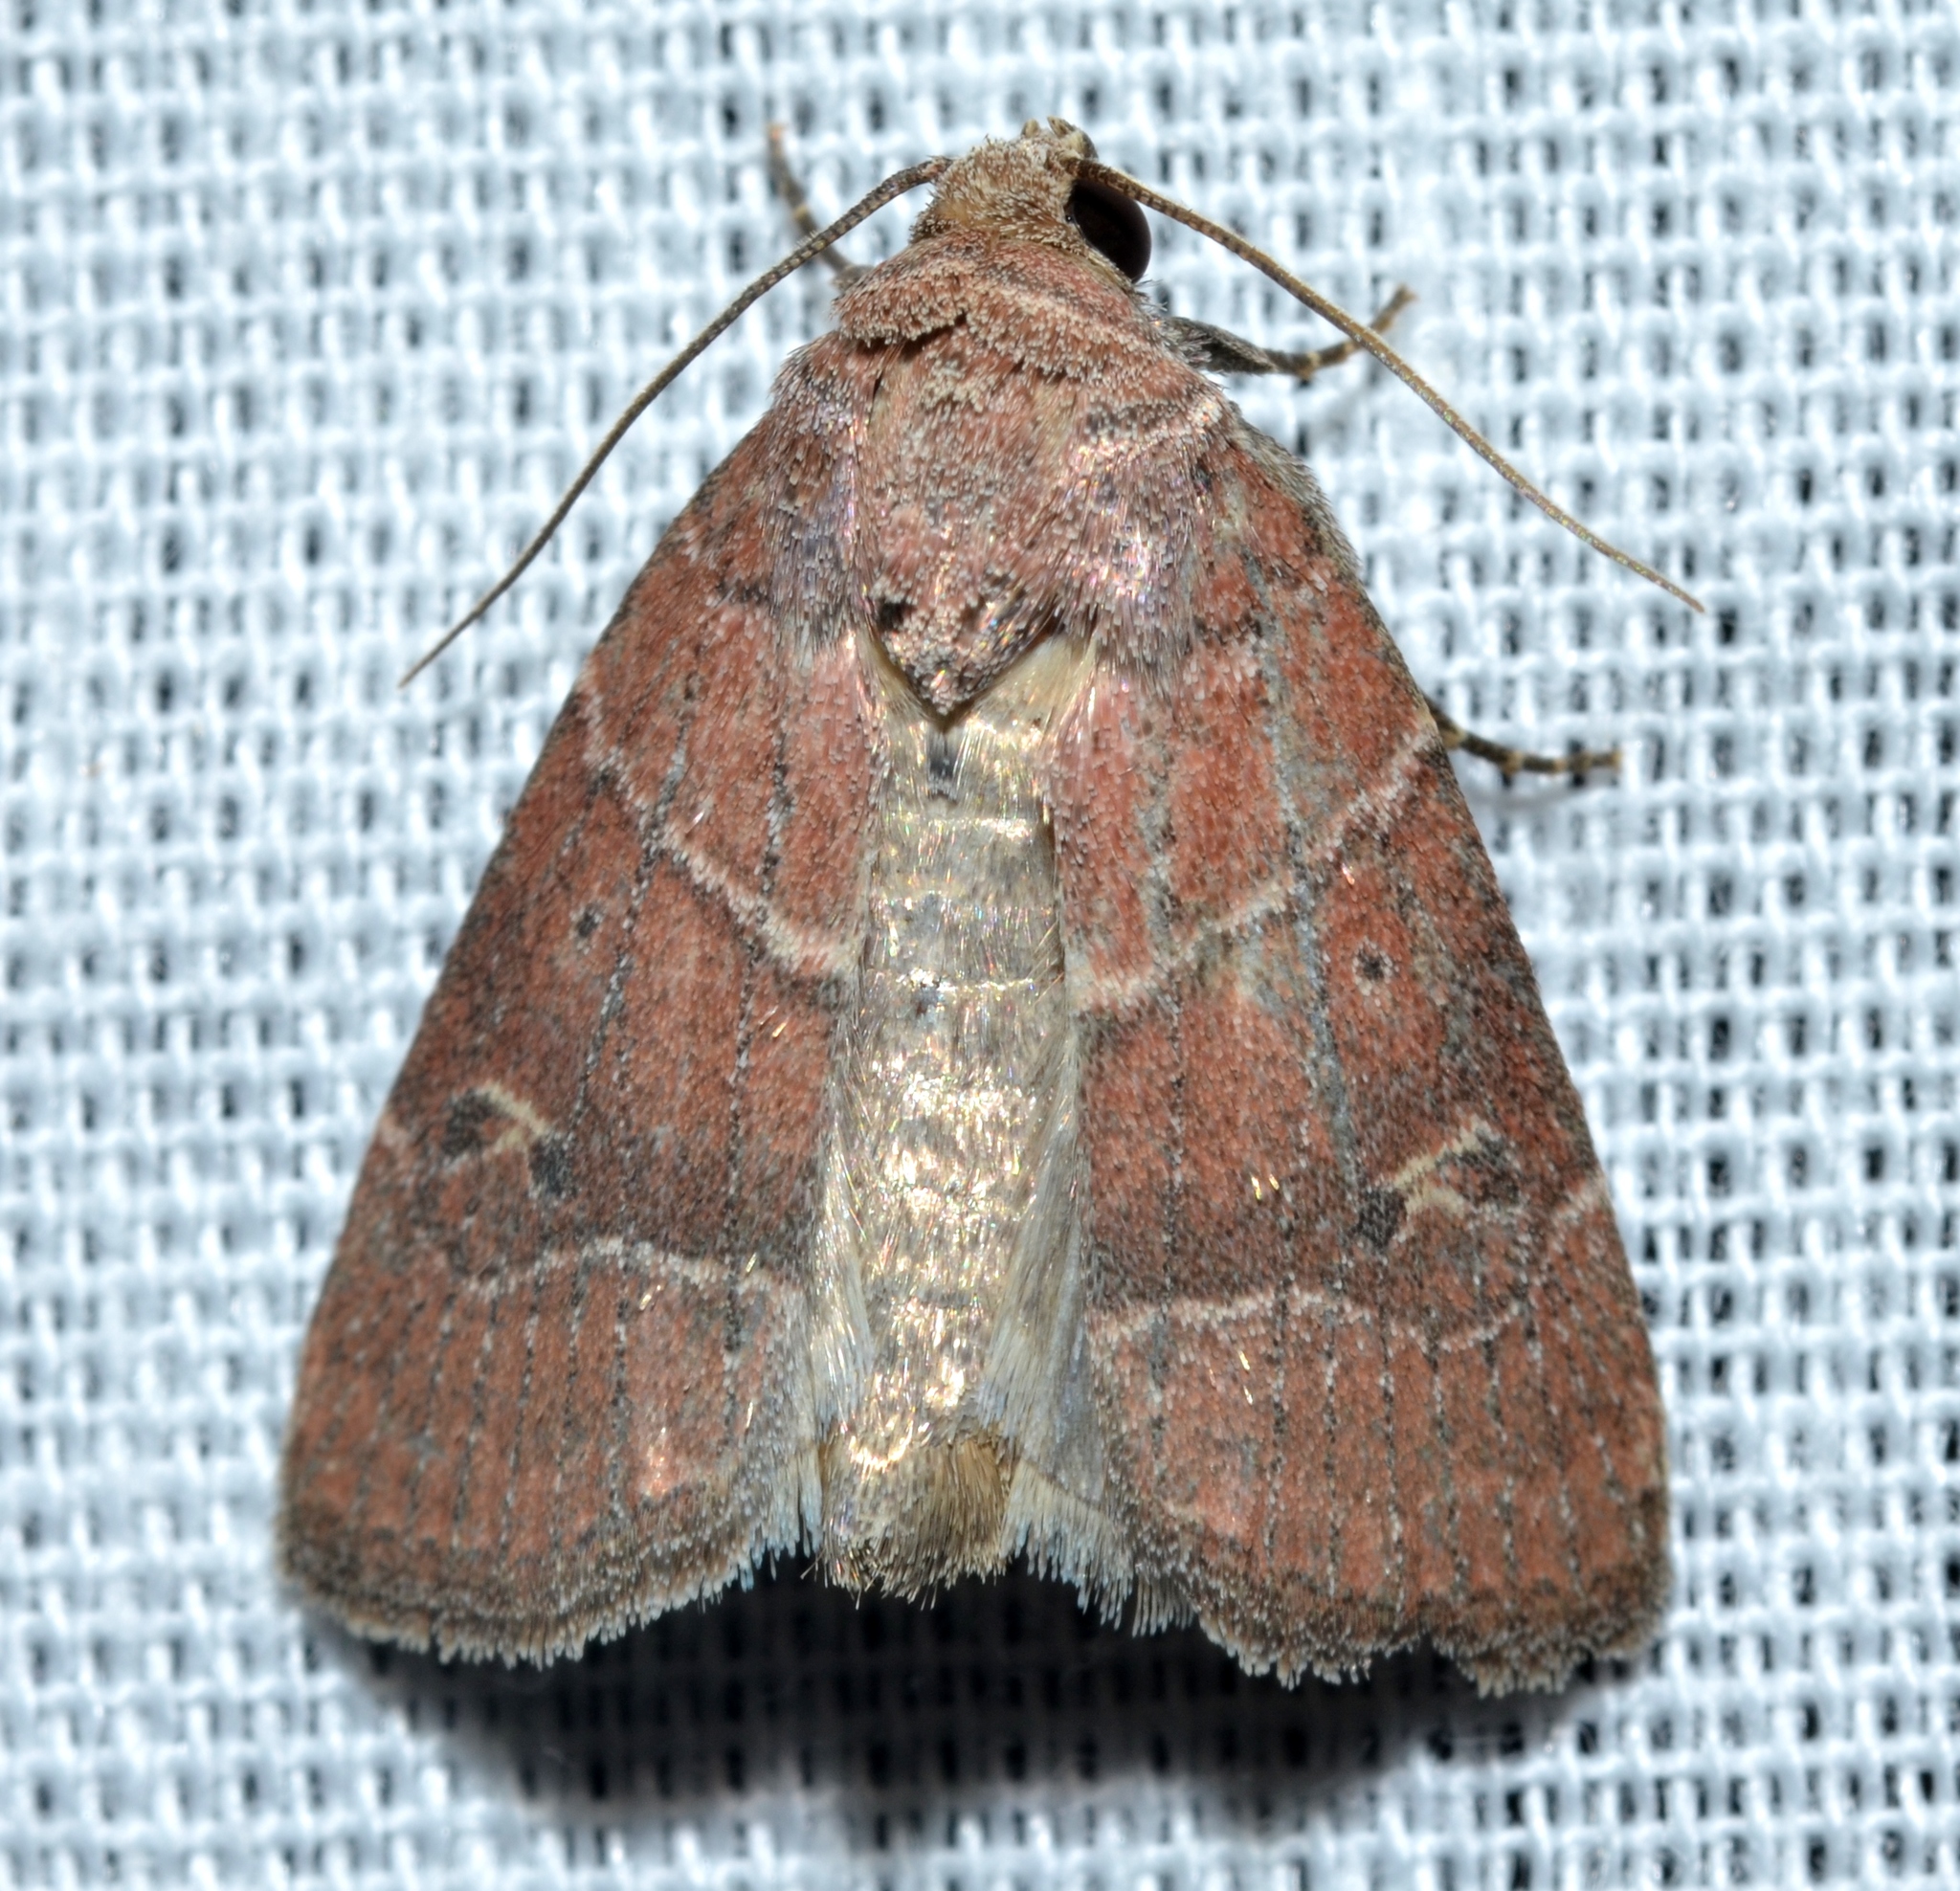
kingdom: Animalia
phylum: Arthropoda
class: Insecta
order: Lepidoptera
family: Noctuidae
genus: Elaphria
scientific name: Elaphria grata
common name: Grateful midget moth
